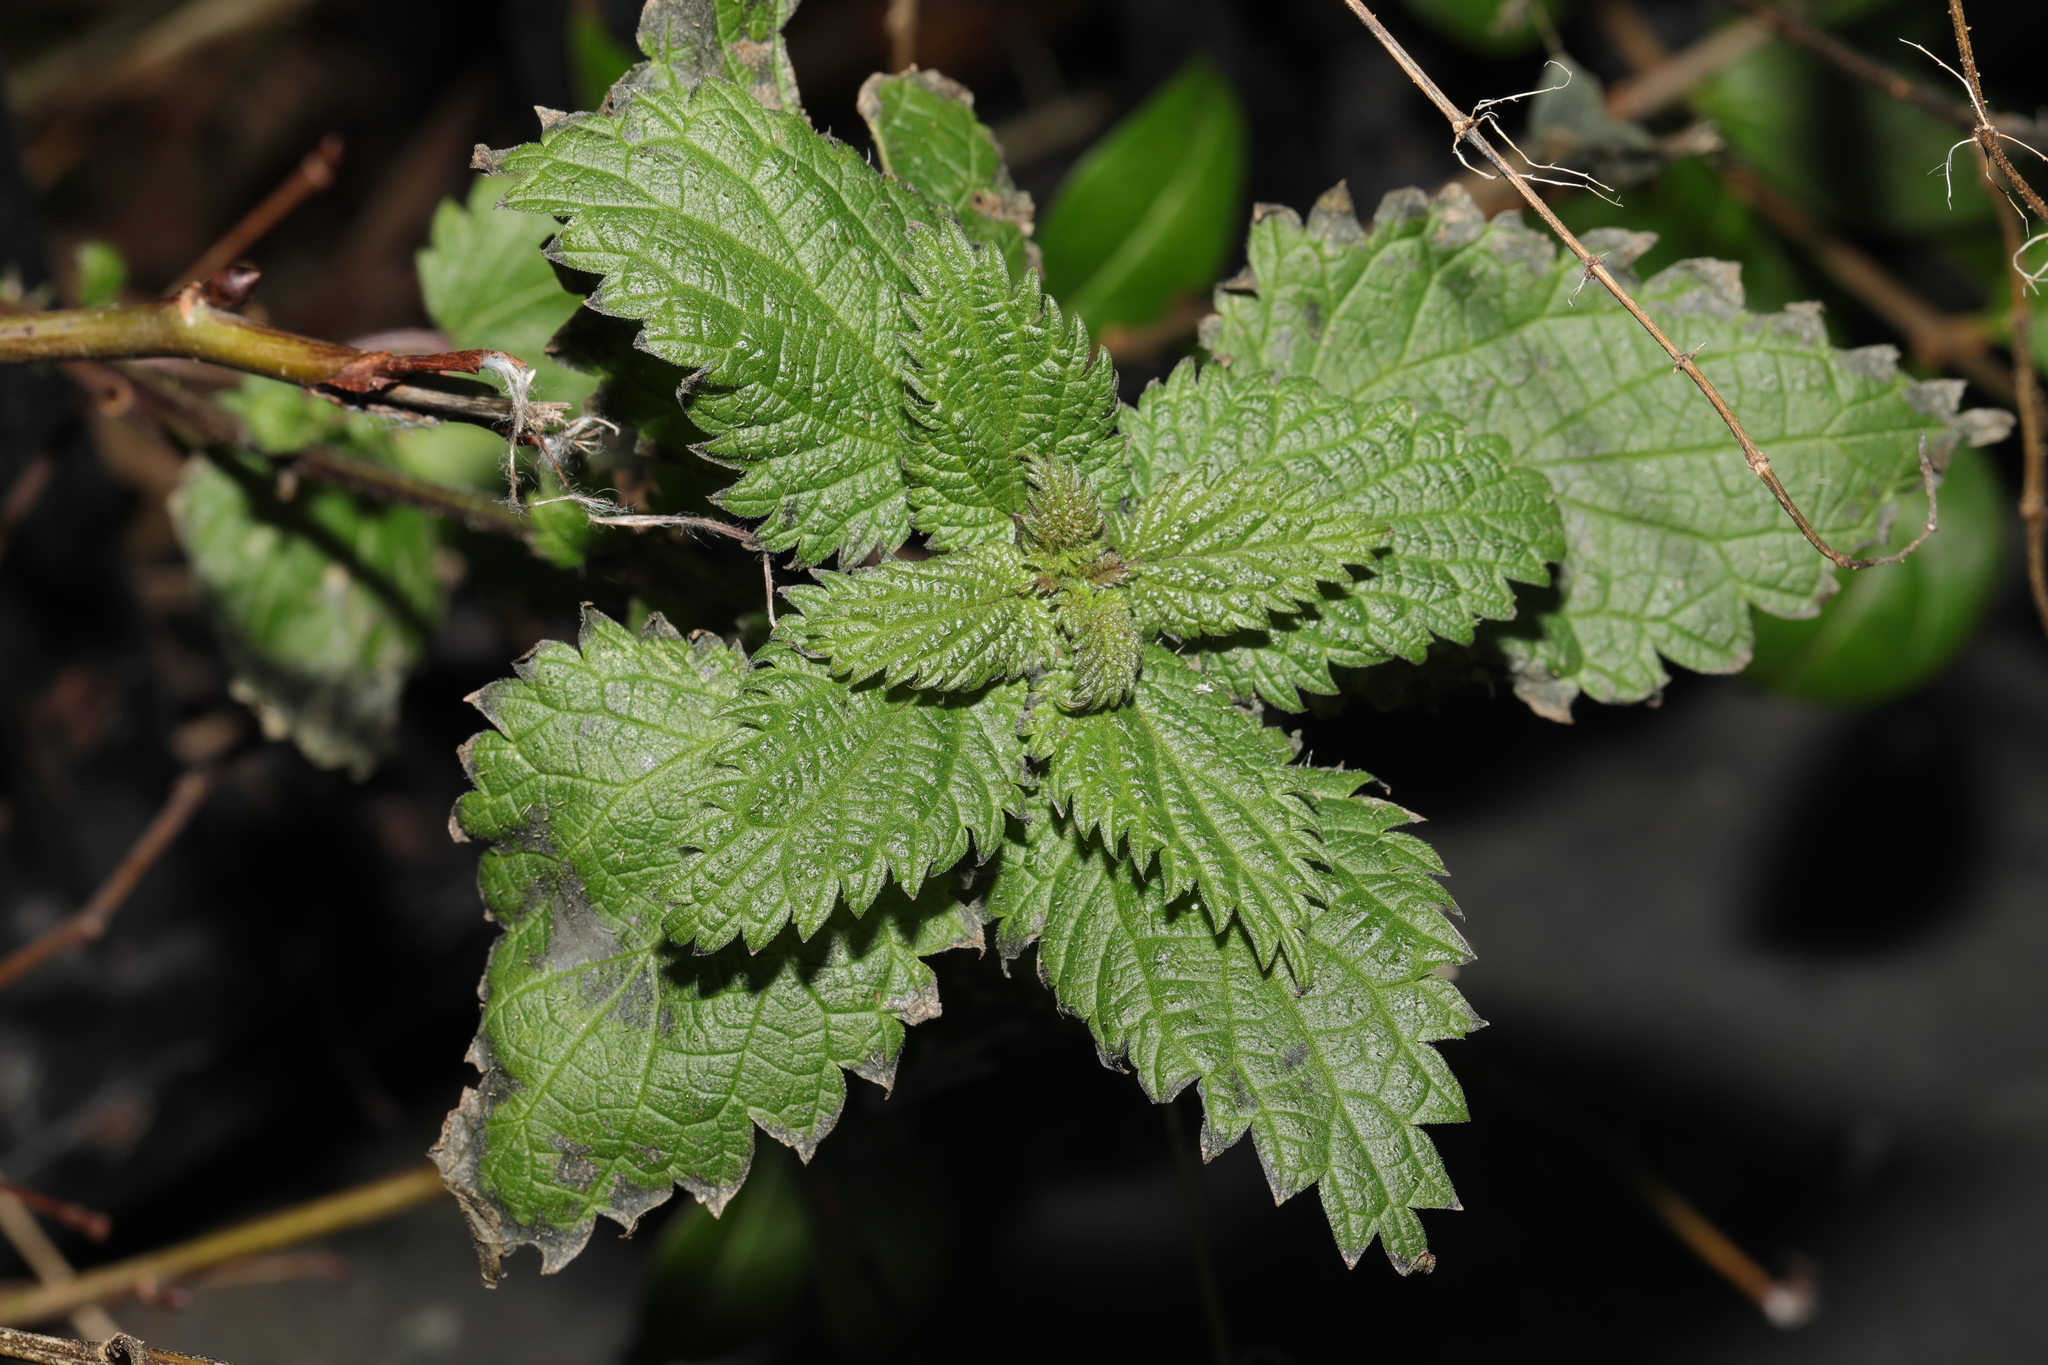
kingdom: Plantae
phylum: Tracheophyta
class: Magnoliopsida
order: Rosales
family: Urticaceae
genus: Urtica
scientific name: Urtica dioica
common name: Common nettle
